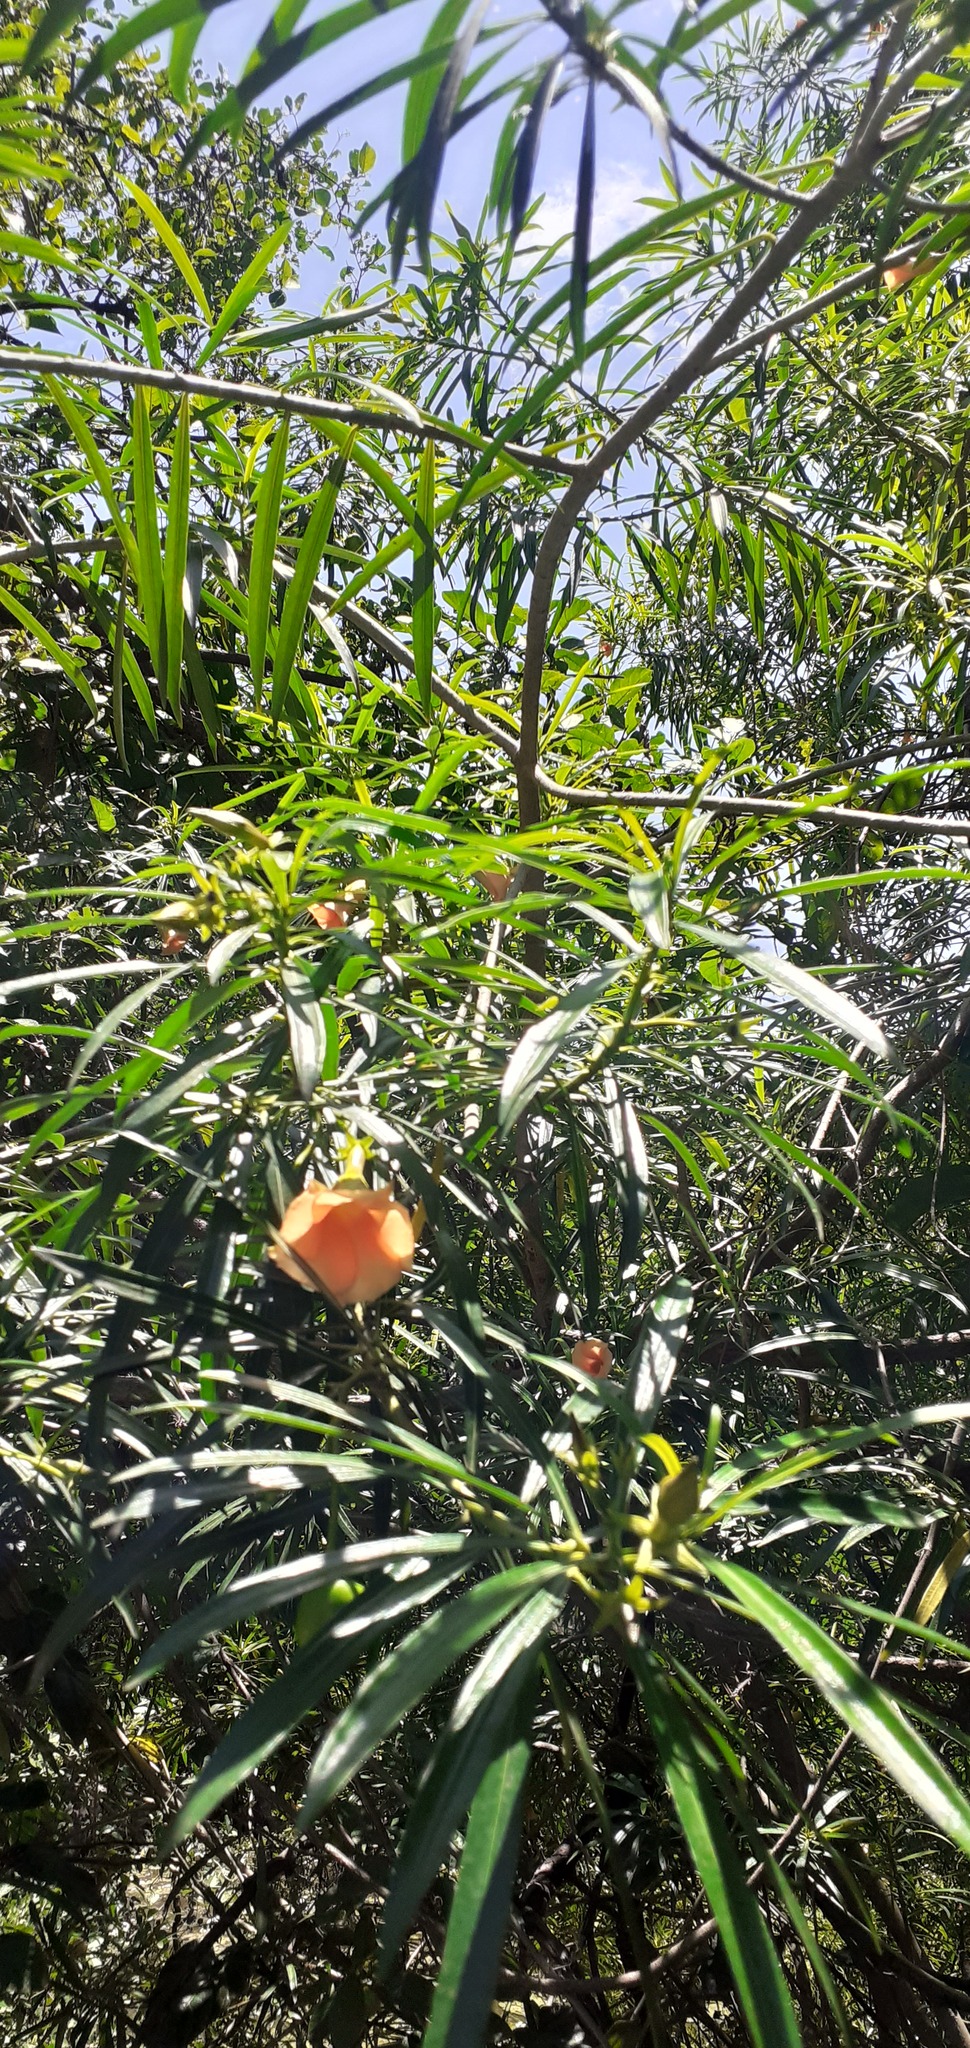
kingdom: Plantae
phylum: Tracheophyta
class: Magnoliopsida
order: Gentianales
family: Apocynaceae
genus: Cascabela
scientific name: Cascabela thevetia
